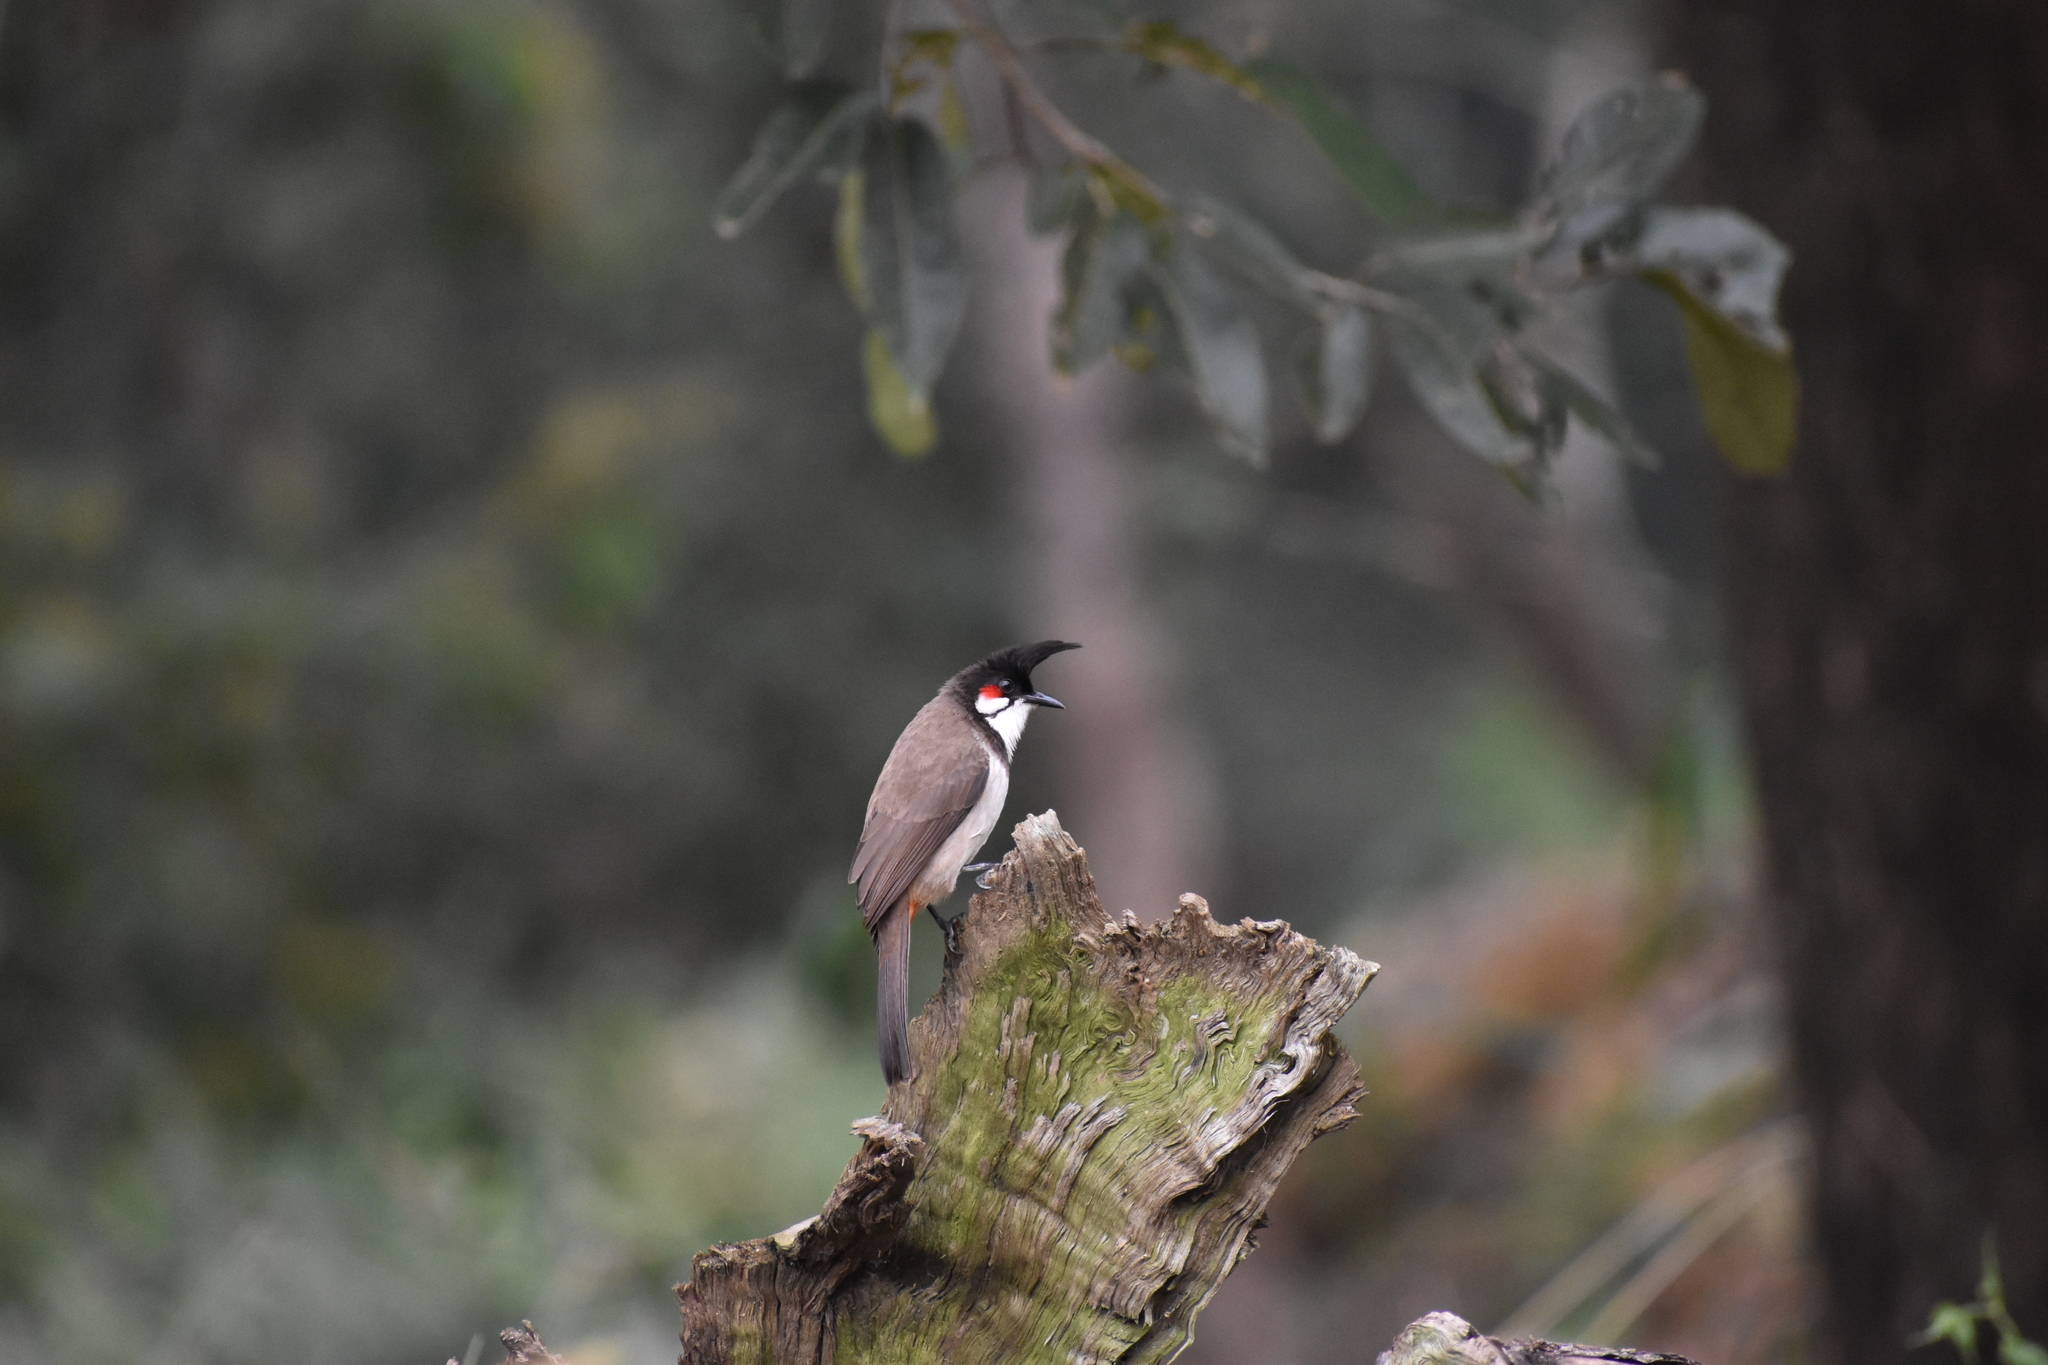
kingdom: Animalia
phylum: Chordata
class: Aves
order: Passeriformes
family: Pycnonotidae
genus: Pycnonotus
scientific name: Pycnonotus jocosus
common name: Red-whiskered bulbul
